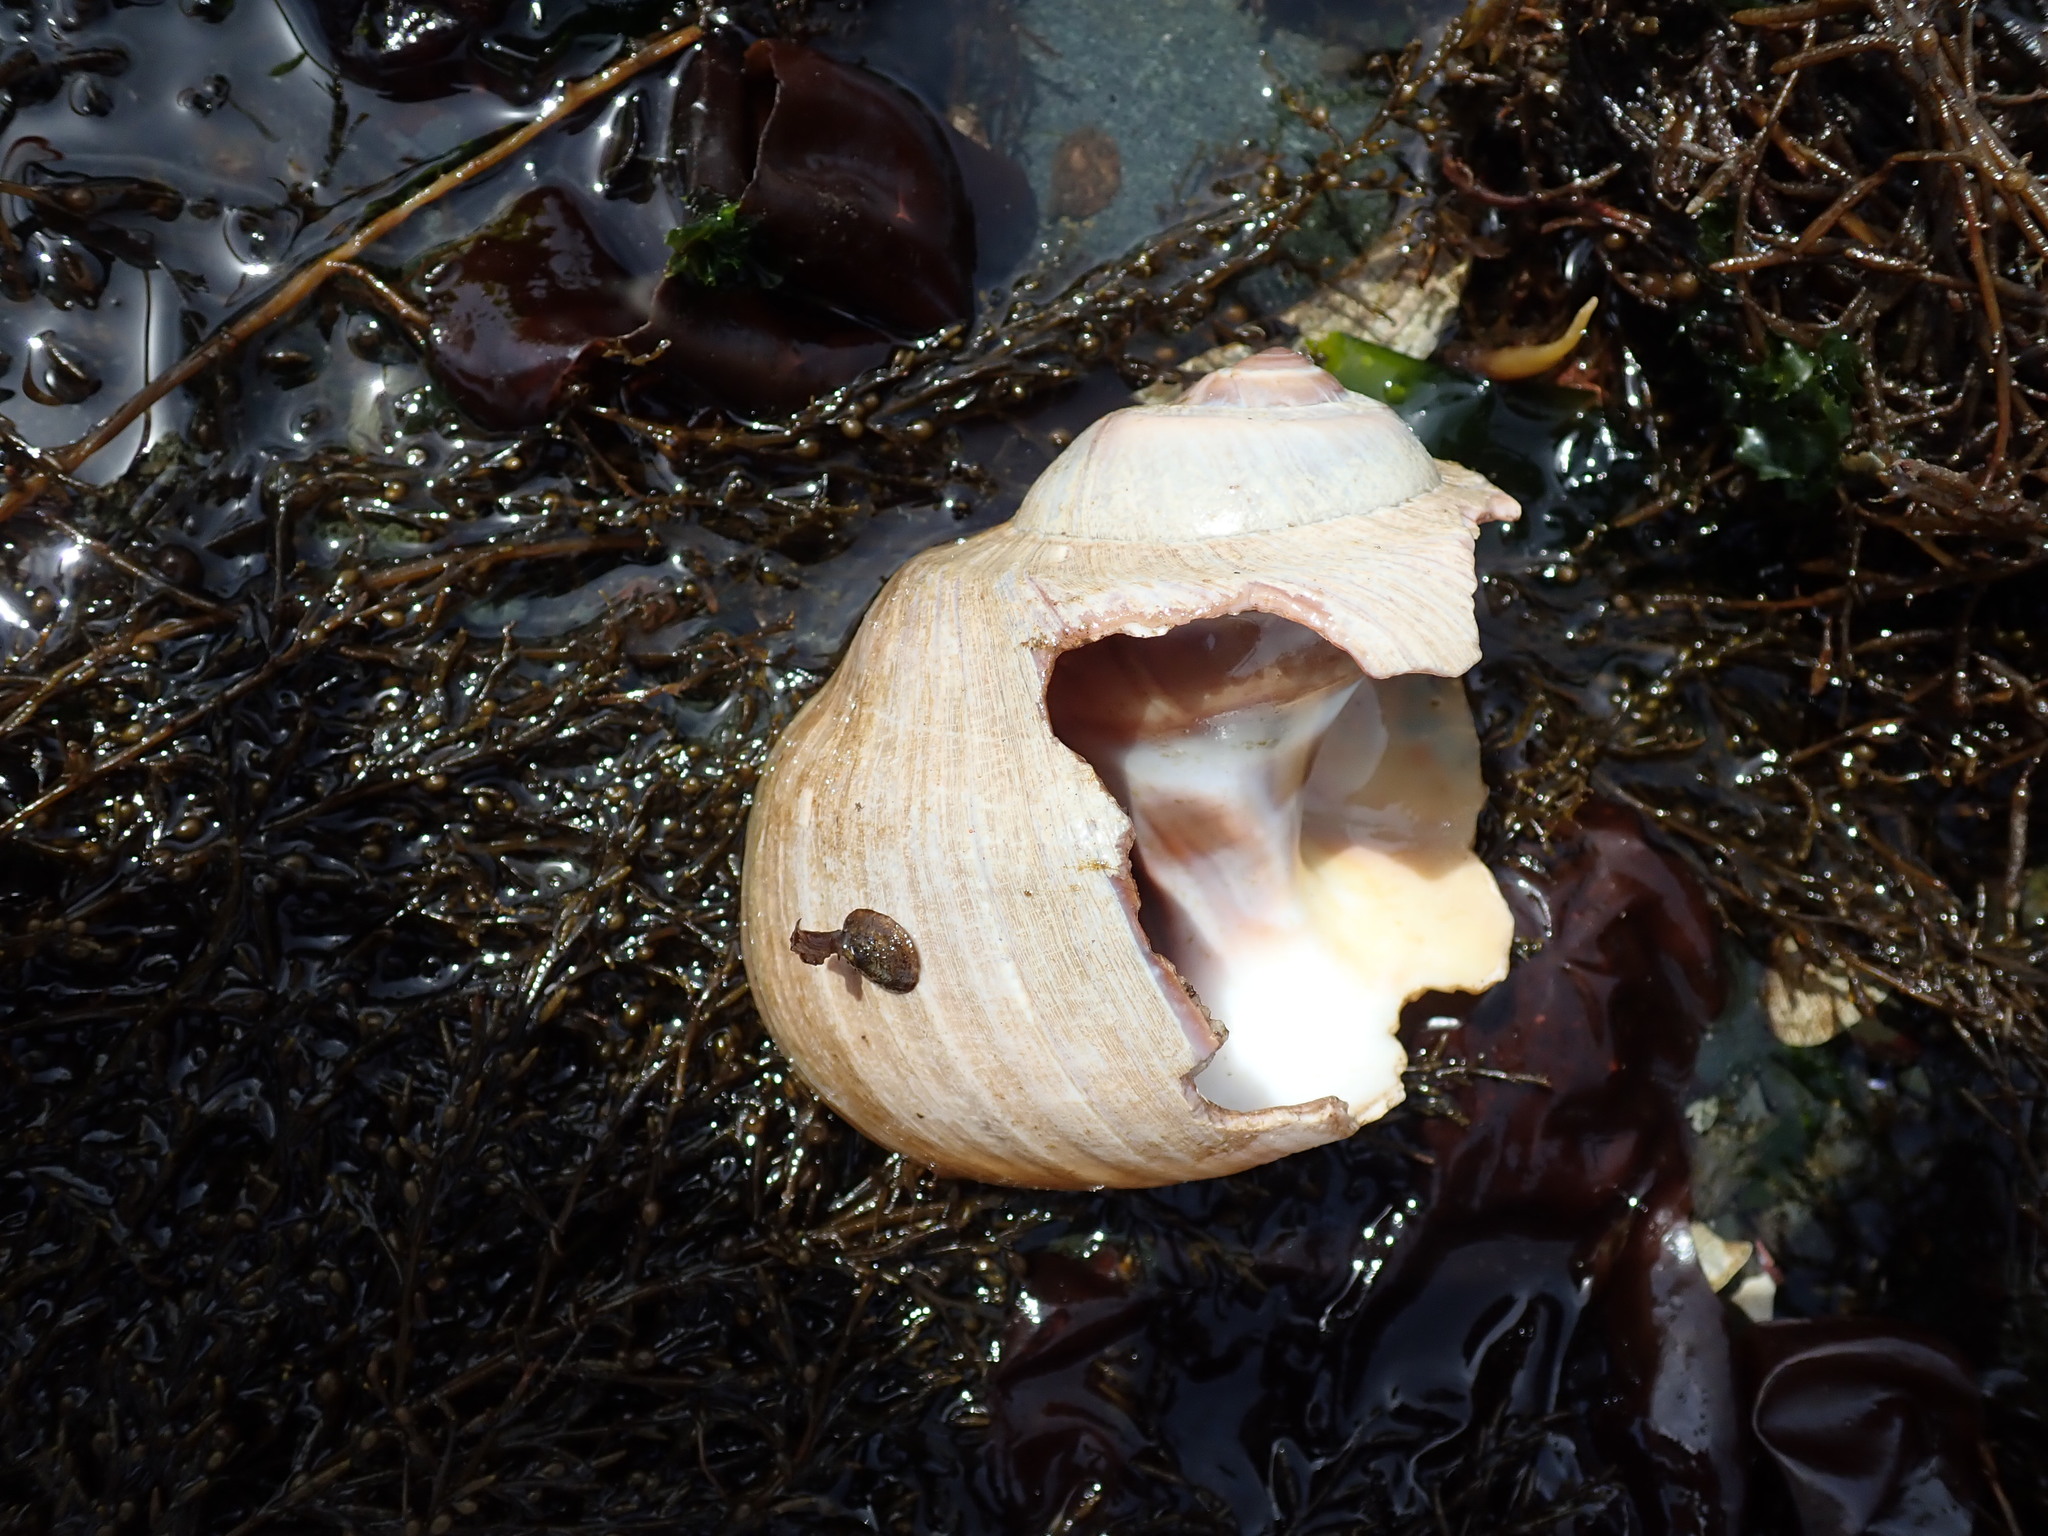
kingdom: Animalia
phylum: Mollusca
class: Gastropoda
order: Littorinimorpha
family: Naticidae
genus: Neverita
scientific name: Neverita lewisii
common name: Lewis' moonsnail
